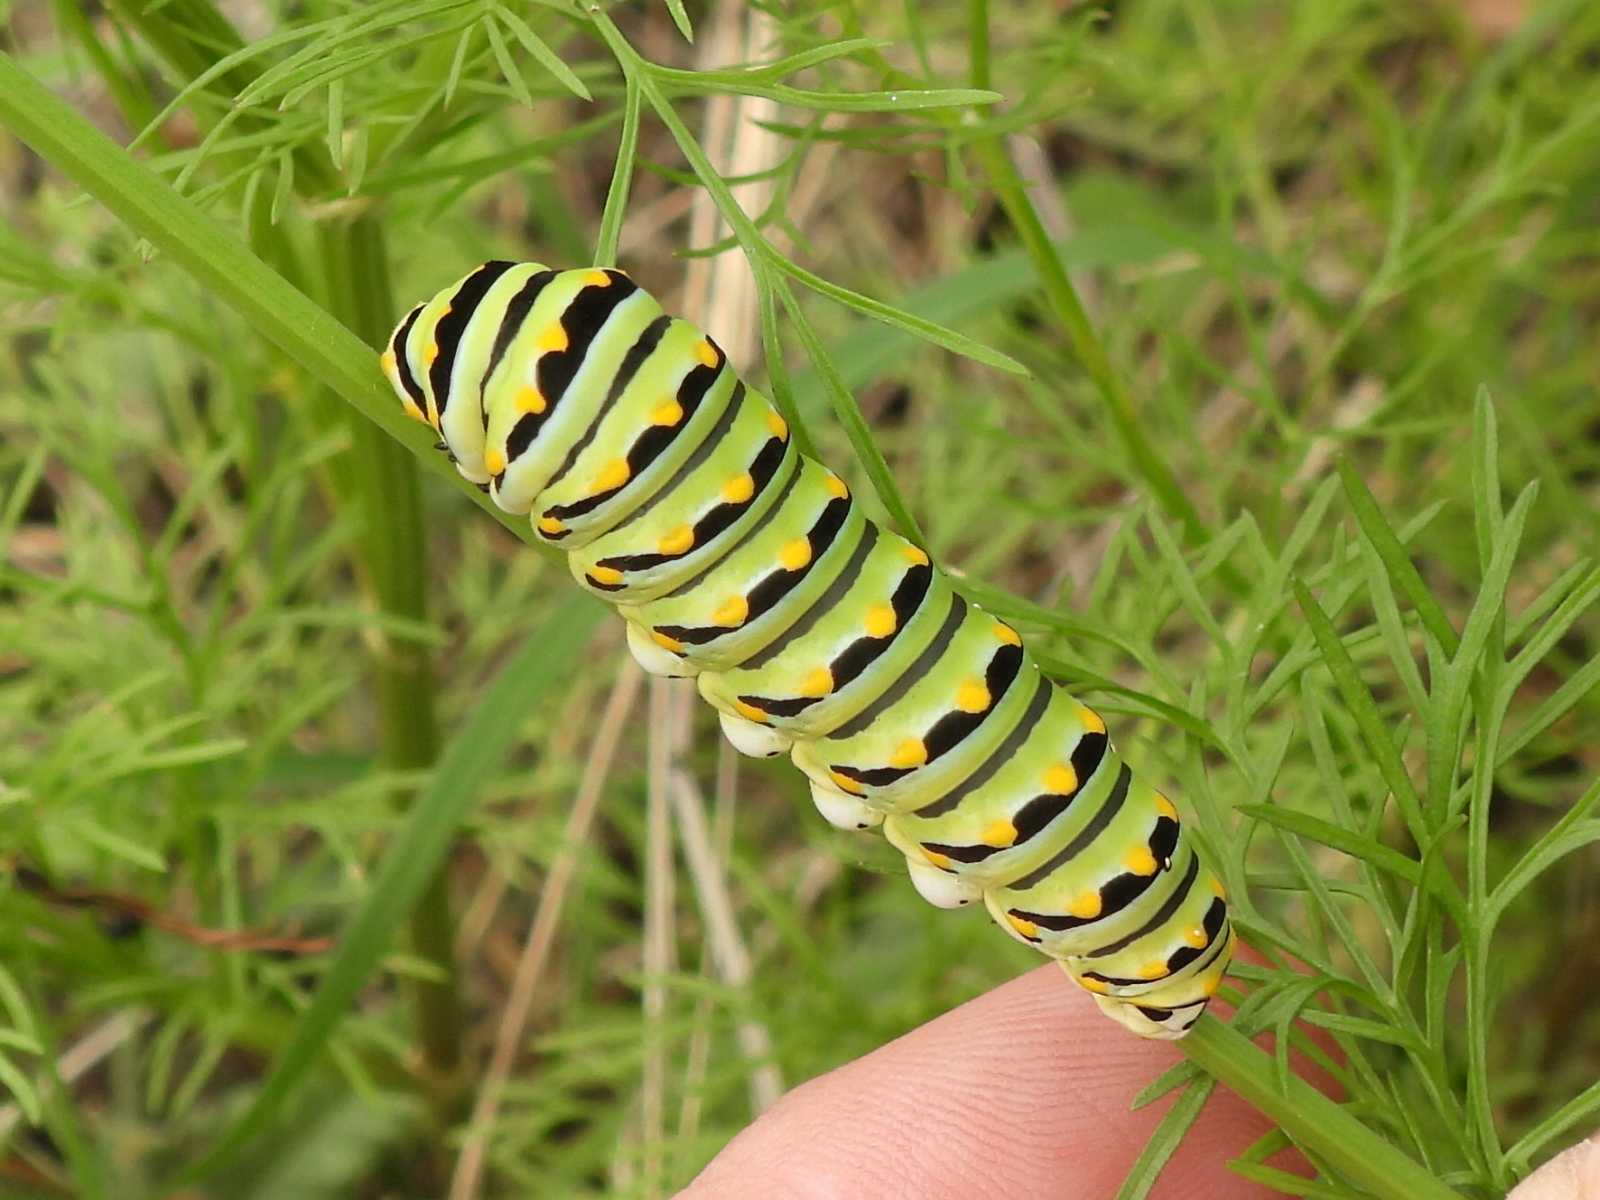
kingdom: Animalia
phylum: Arthropoda
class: Insecta
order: Lepidoptera
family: Papilionidae
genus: Papilio
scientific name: Papilio polyxenes
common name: Black swallowtail
